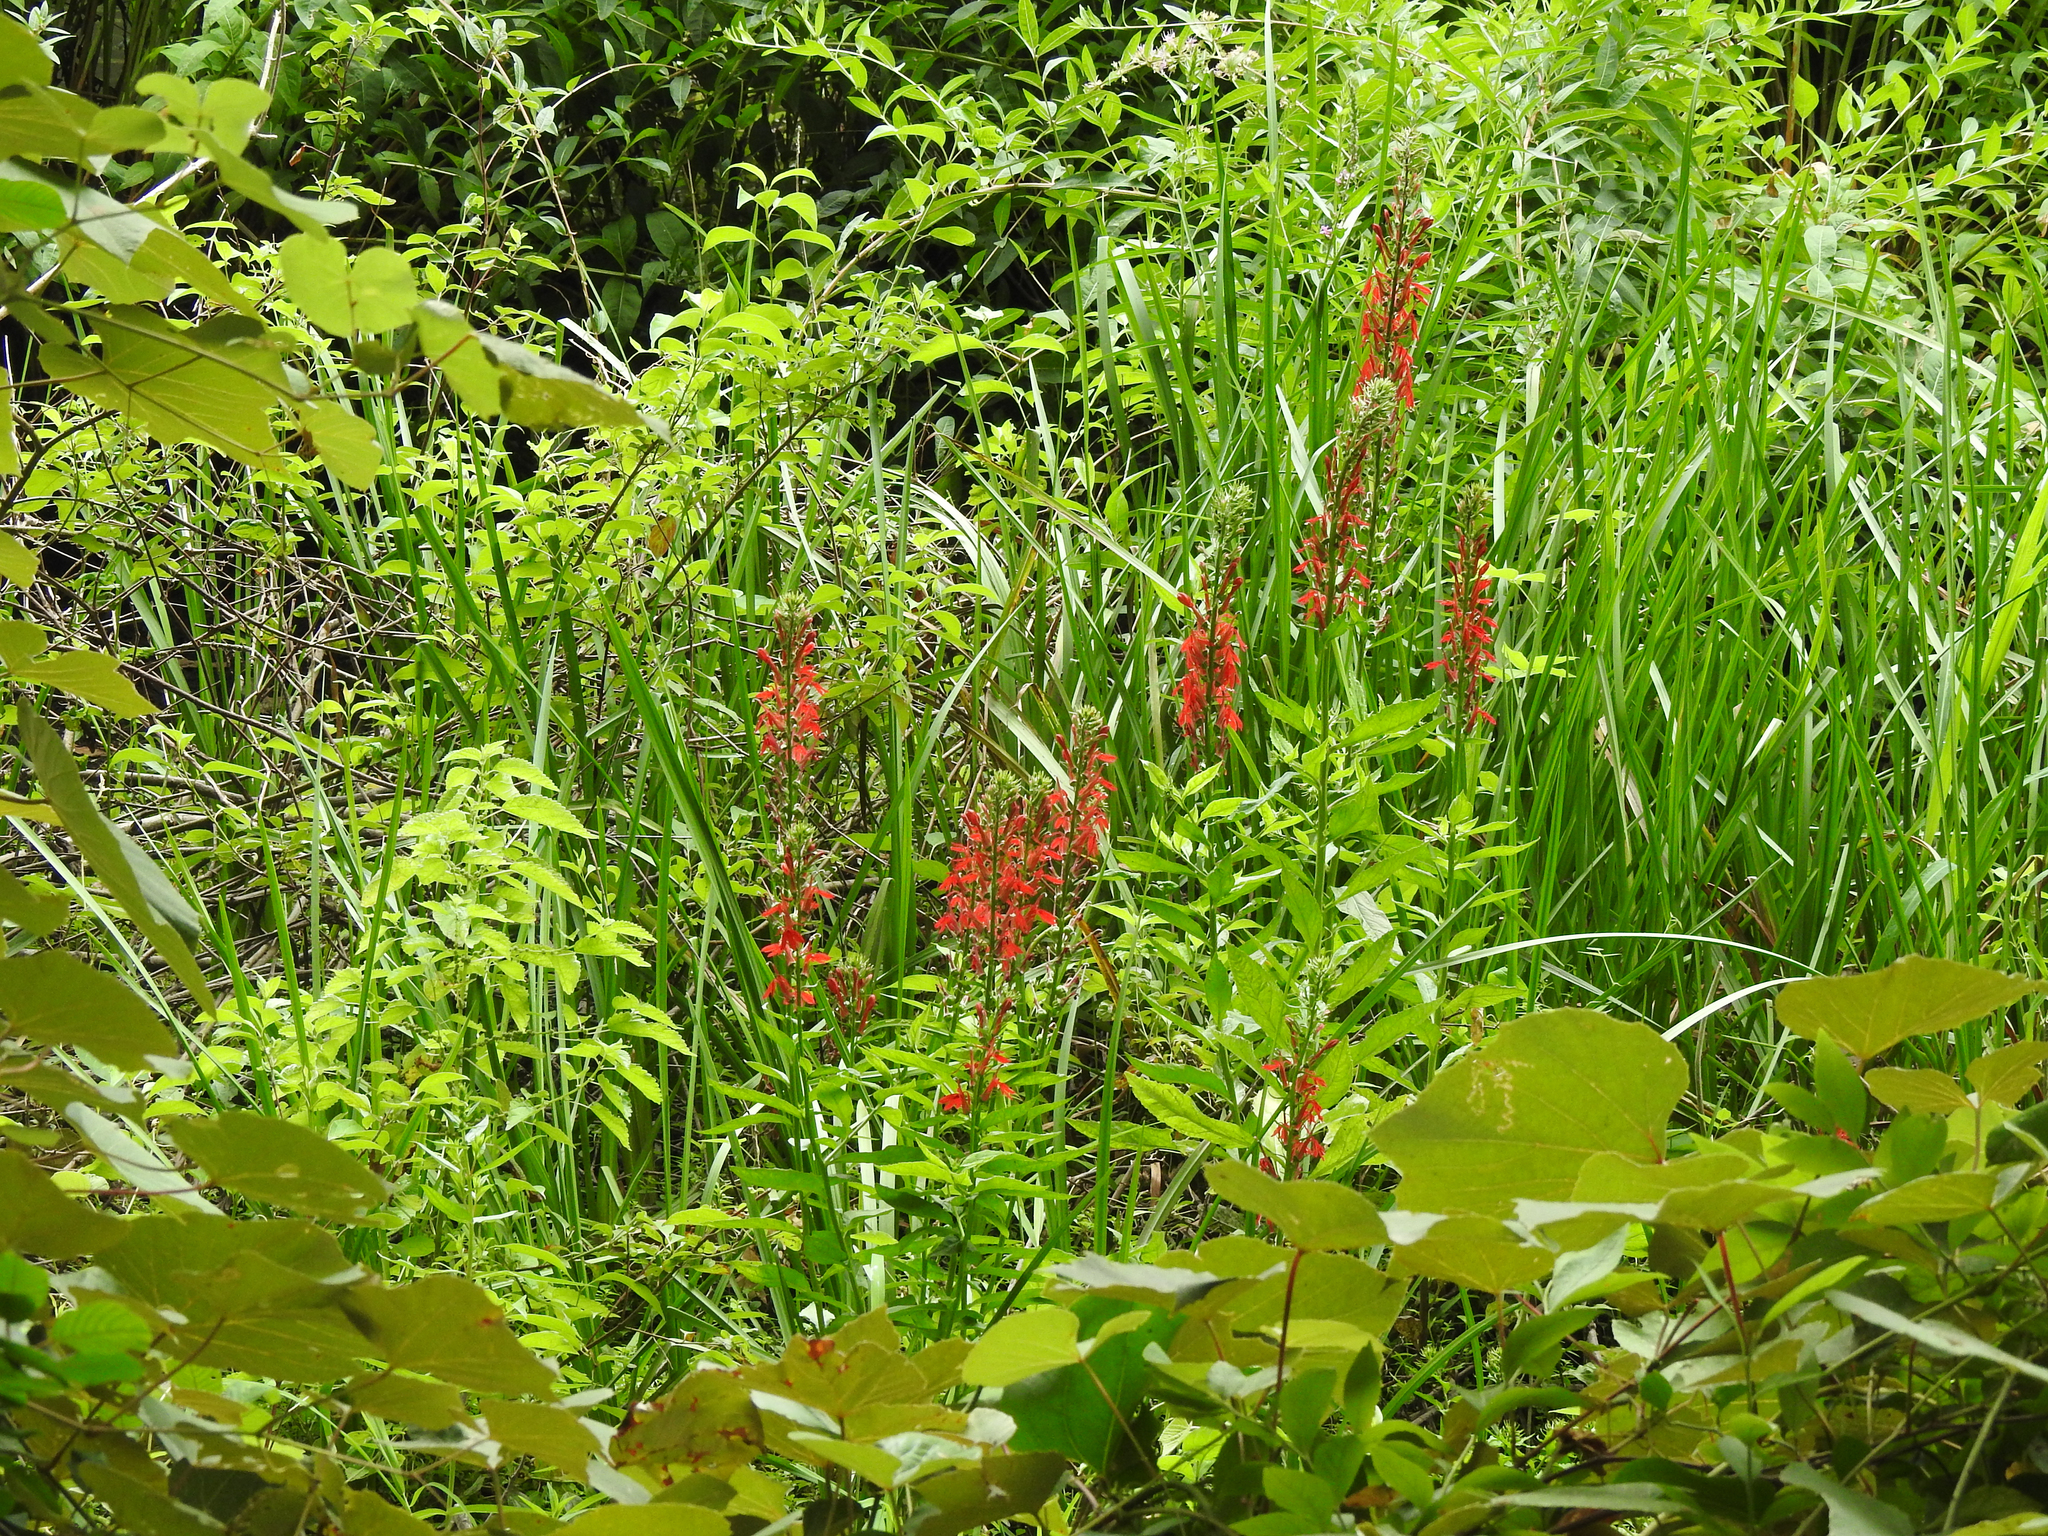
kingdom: Plantae
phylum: Tracheophyta
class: Magnoliopsida
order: Asterales
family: Campanulaceae
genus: Lobelia
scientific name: Lobelia cardinalis
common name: Cardinal flower
